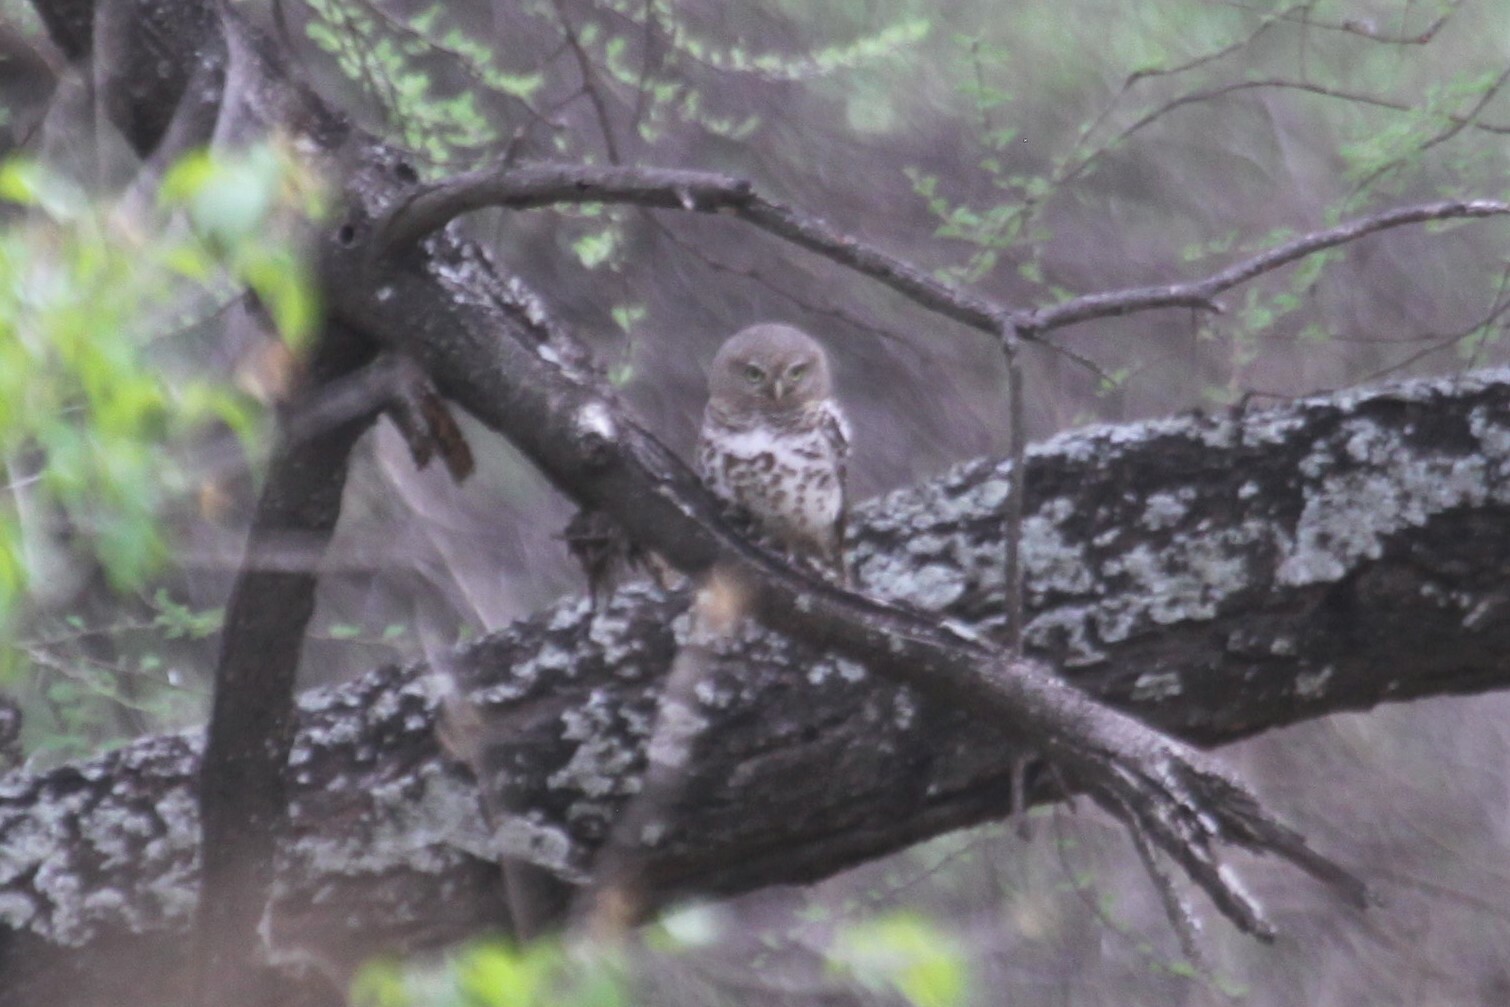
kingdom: Animalia
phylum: Chordata
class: Aves
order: Strigiformes
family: Strigidae
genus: Glaucidium
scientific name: Glaucidium capense
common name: African barred owlet
